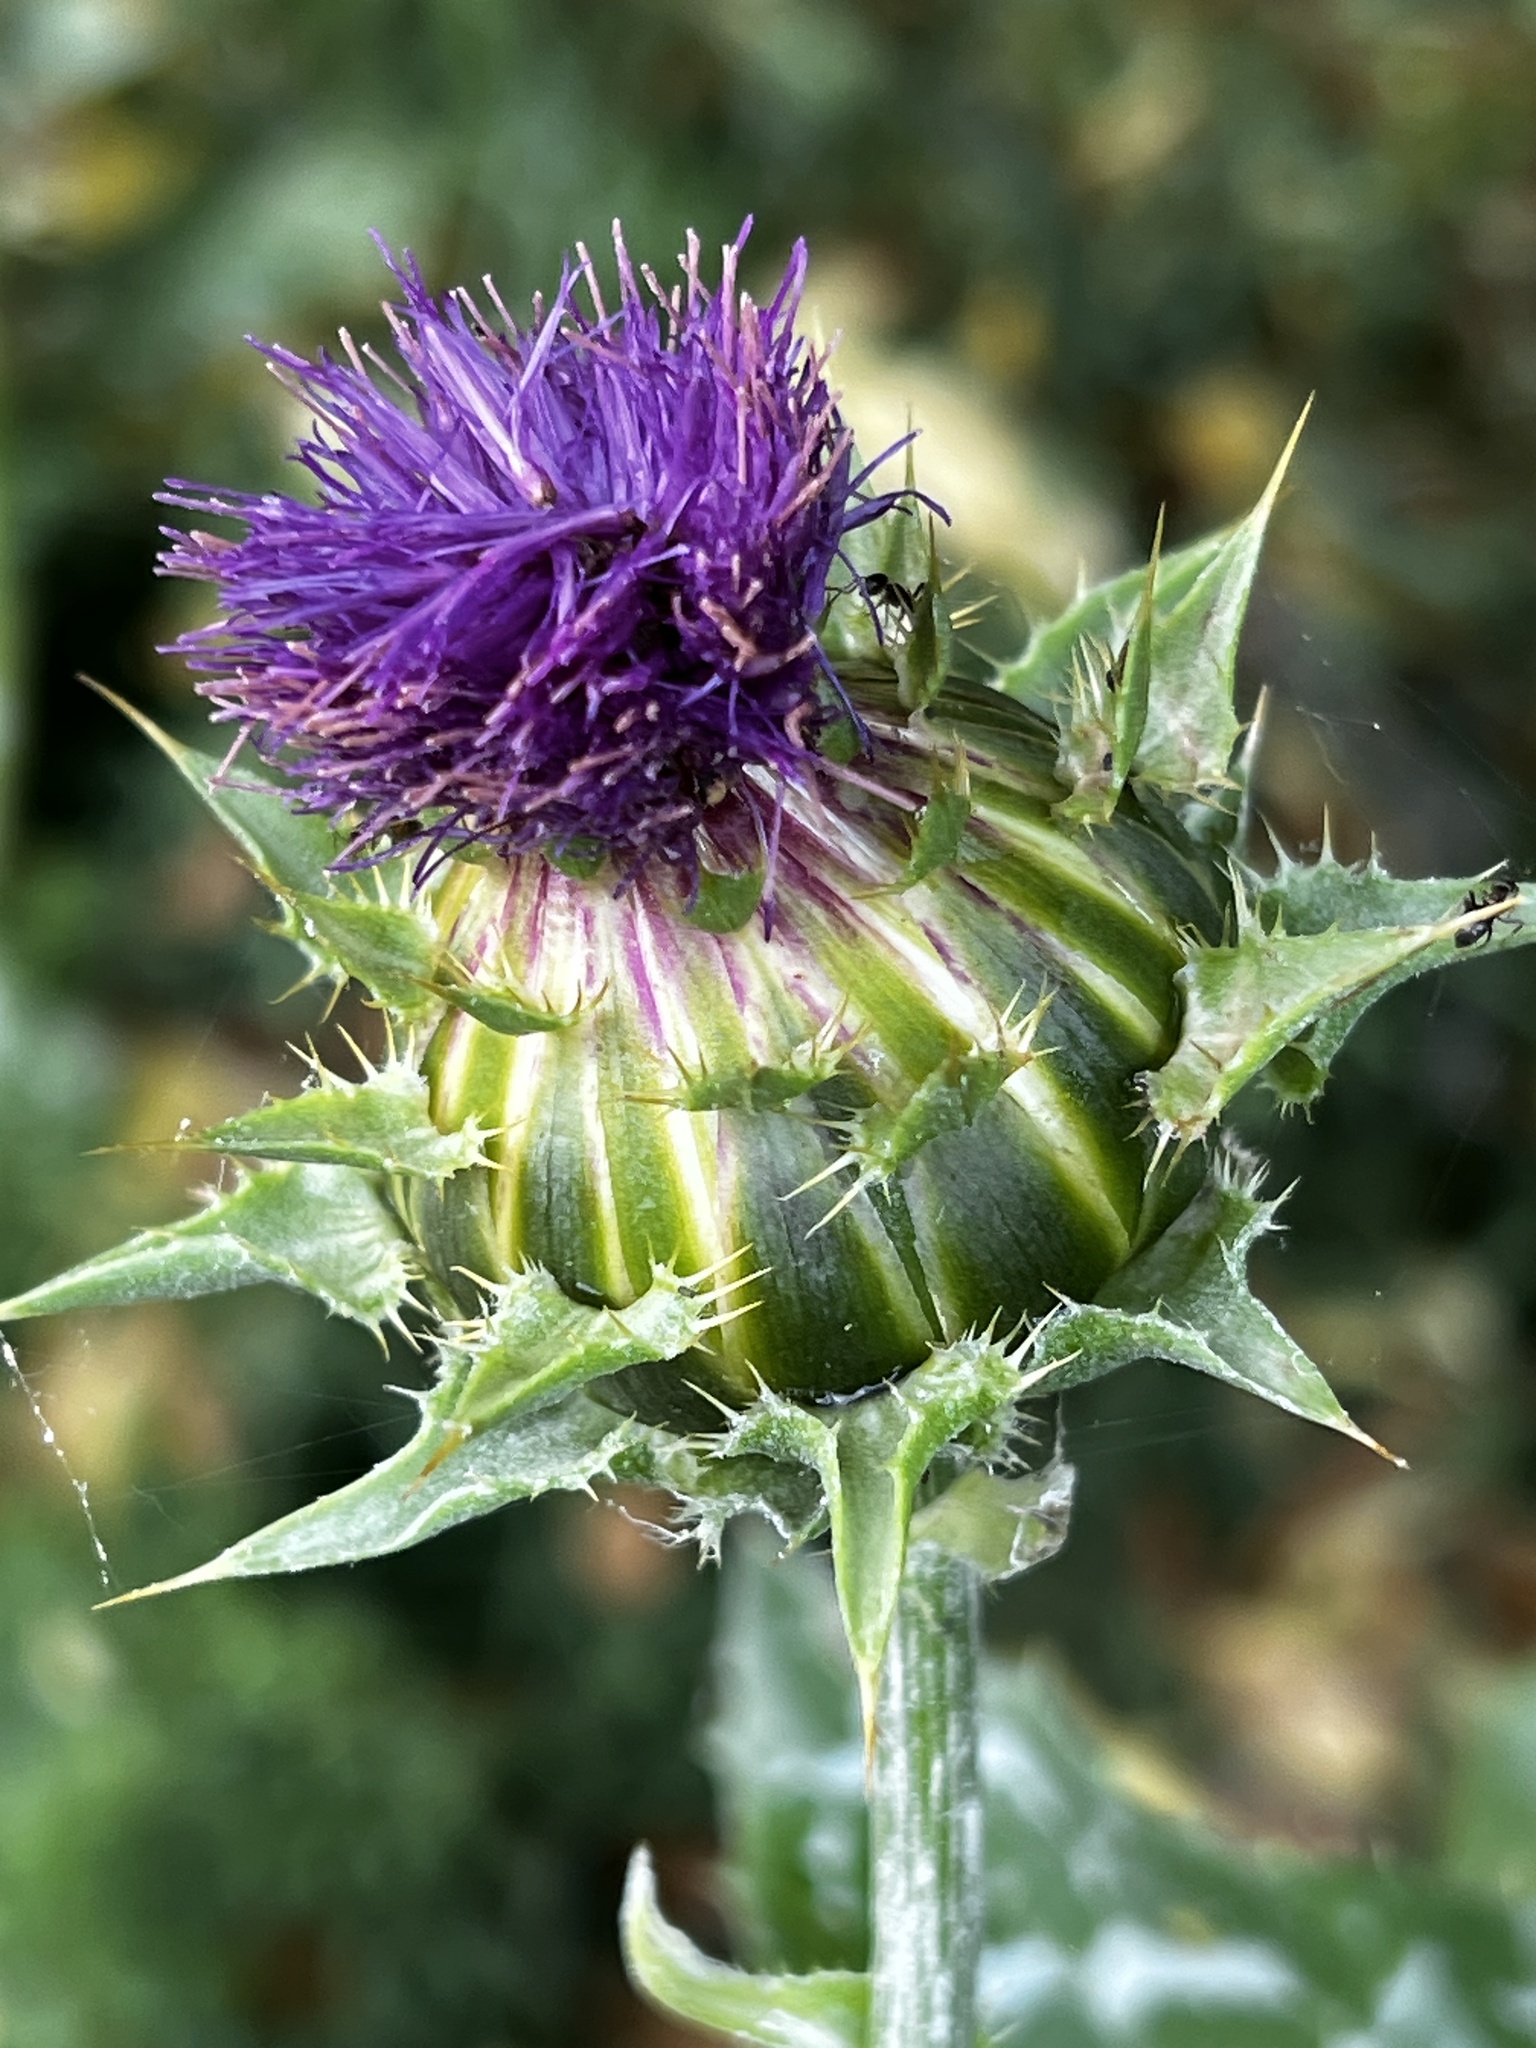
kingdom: Plantae
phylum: Tracheophyta
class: Magnoliopsida
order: Asterales
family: Asteraceae
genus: Silybum
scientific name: Silybum marianum
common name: Milk thistle
